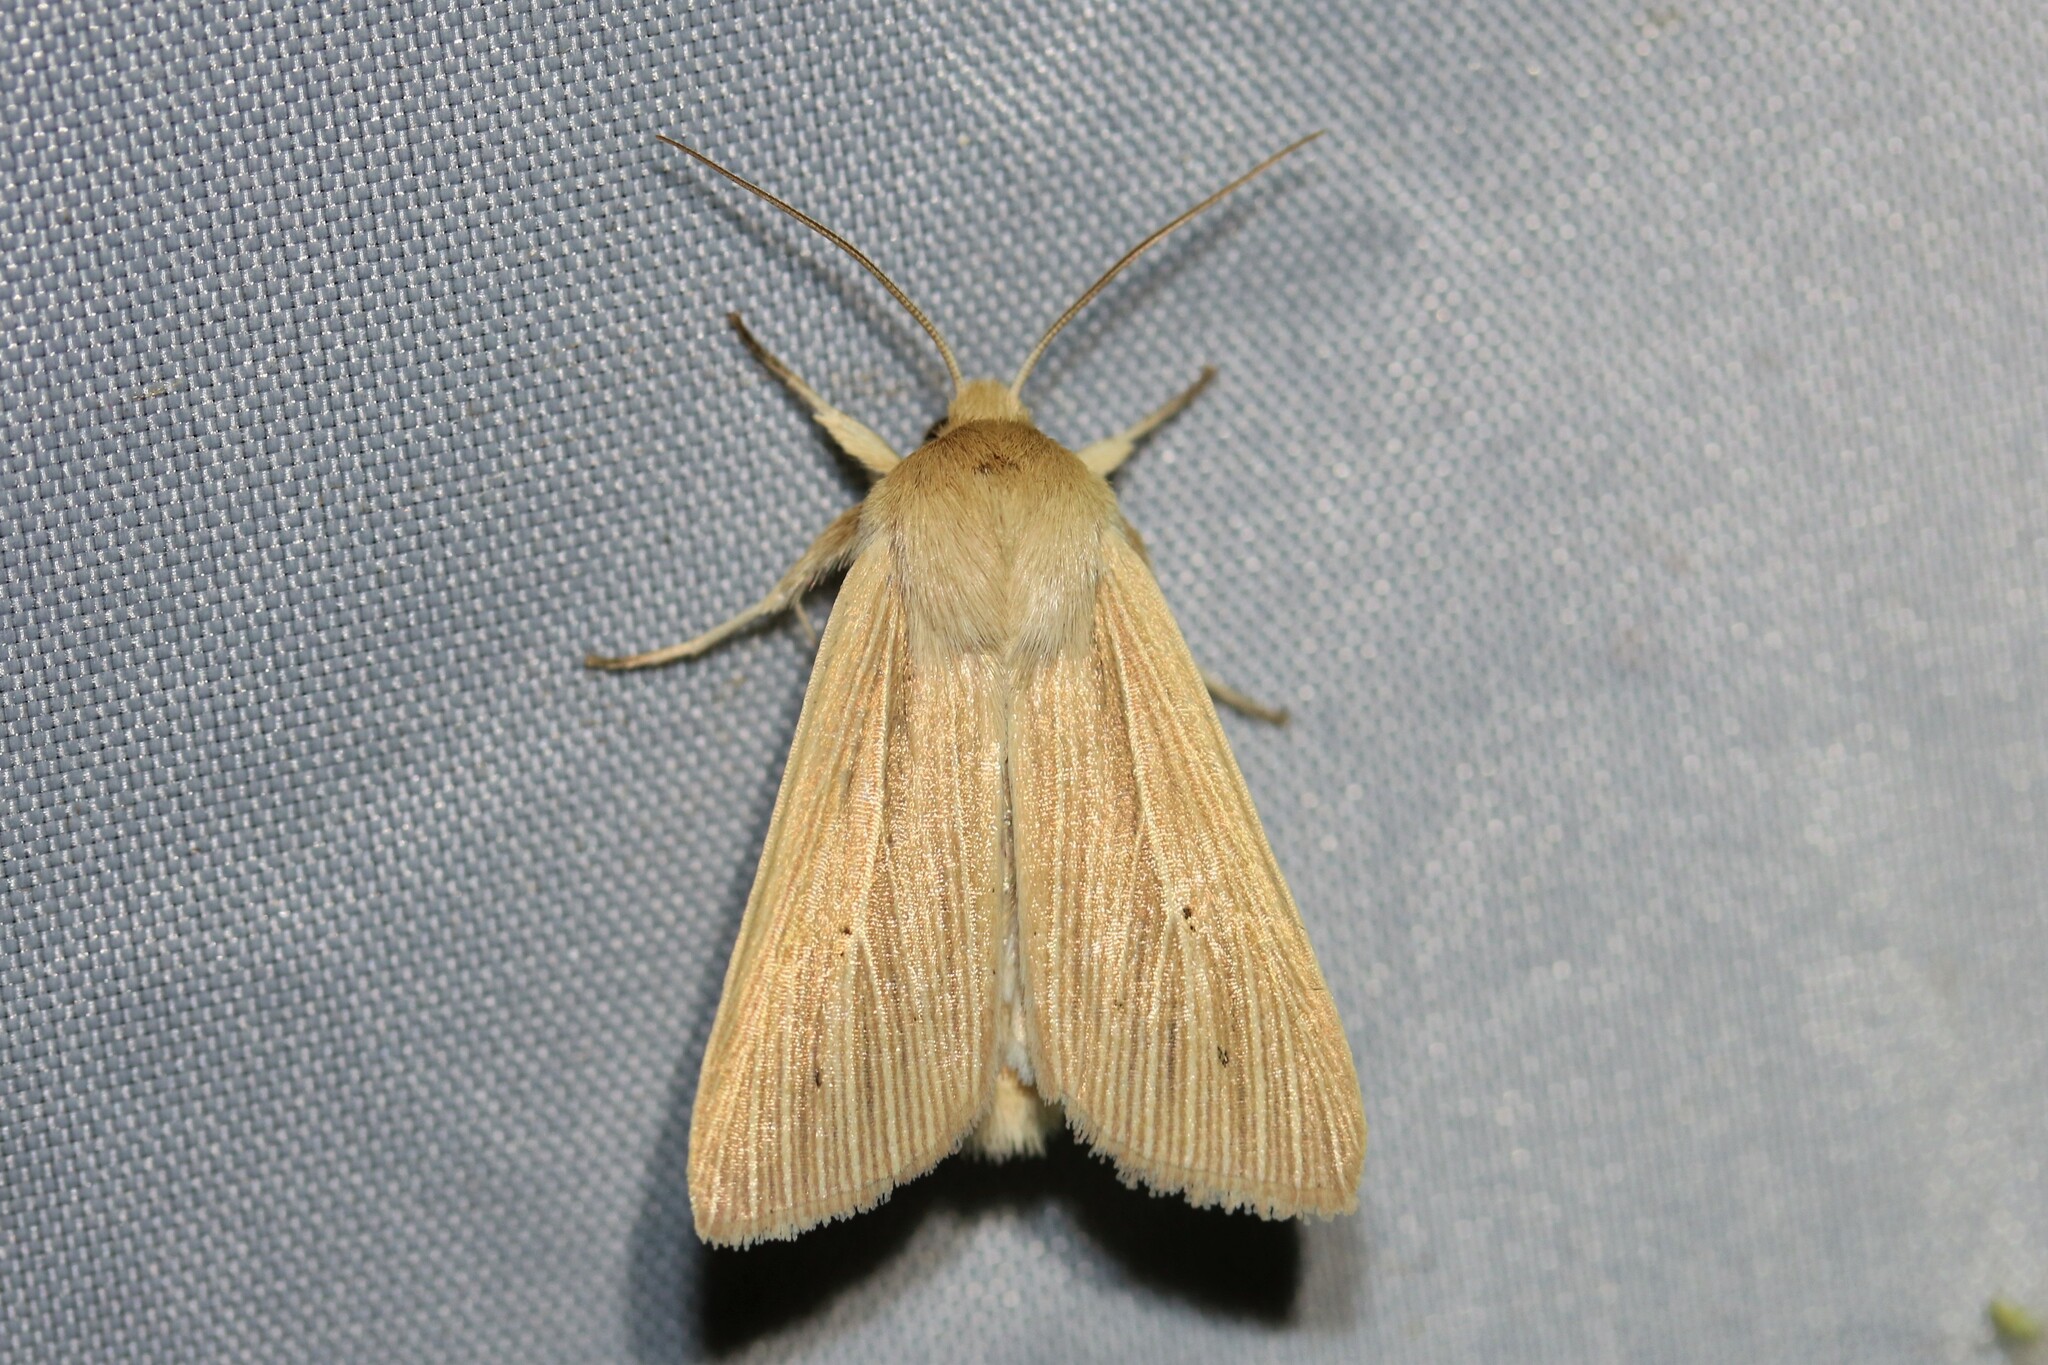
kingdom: Animalia
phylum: Arthropoda
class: Insecta
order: Lepidoptera
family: Noctuidae
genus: Mythimna
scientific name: Mythimna pallens
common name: Common wainscot
